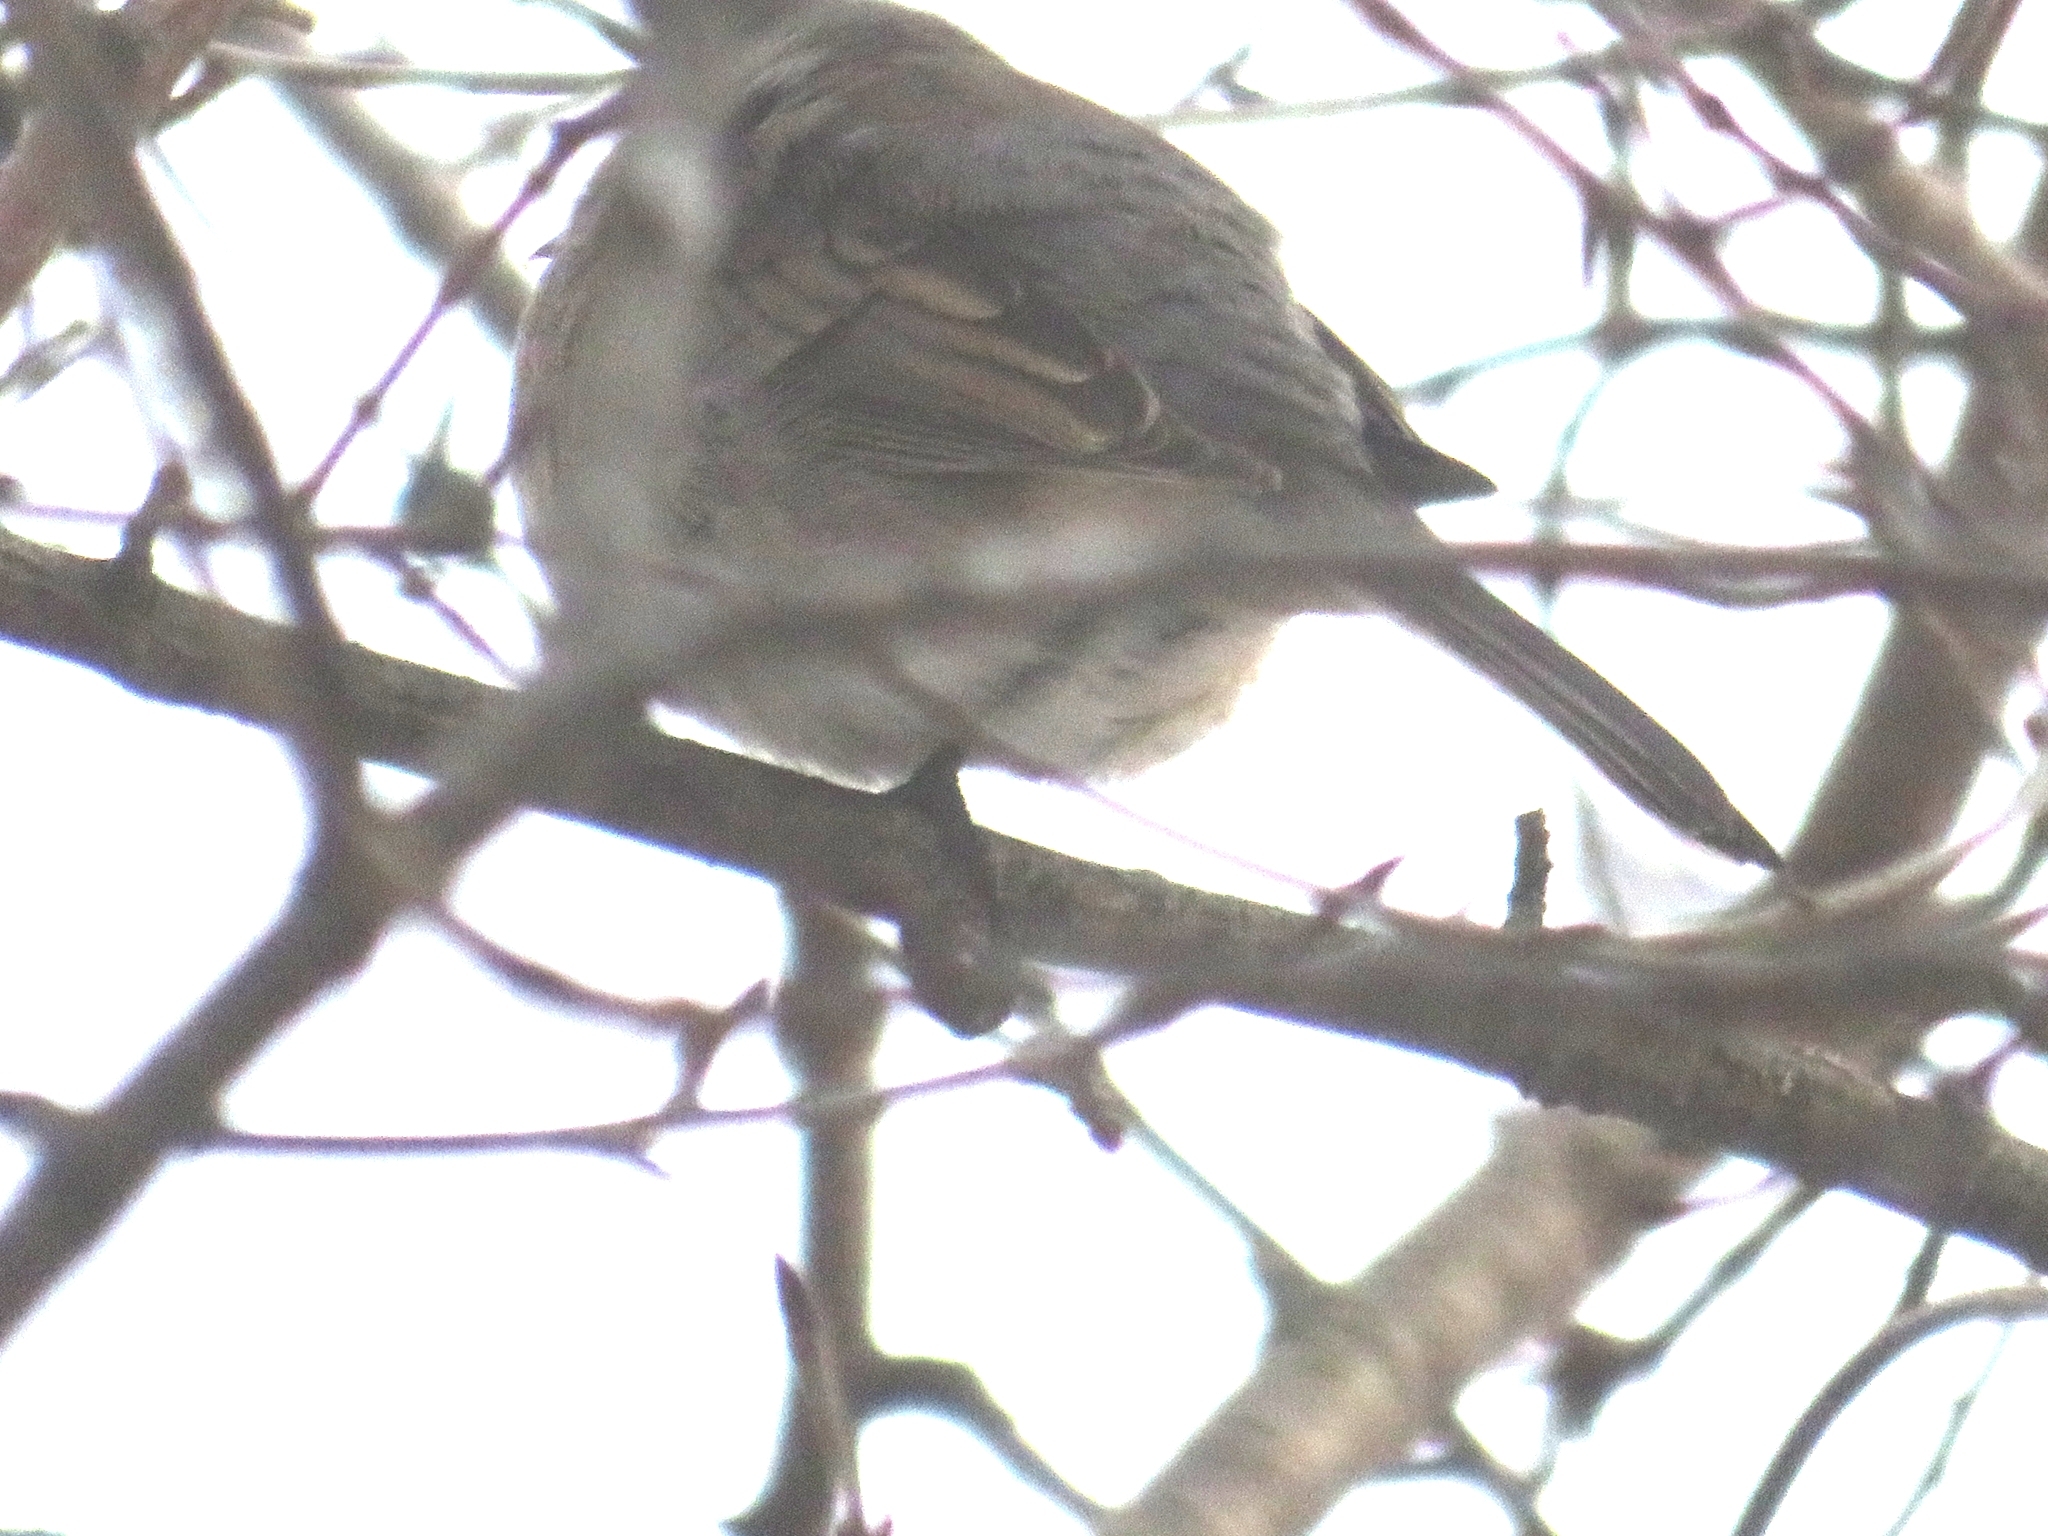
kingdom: Animalia
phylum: Chordata
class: Aves
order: Columbiformes
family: Columbidae
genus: Zenaida
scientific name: Zenaida macroura
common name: Mourning dove
